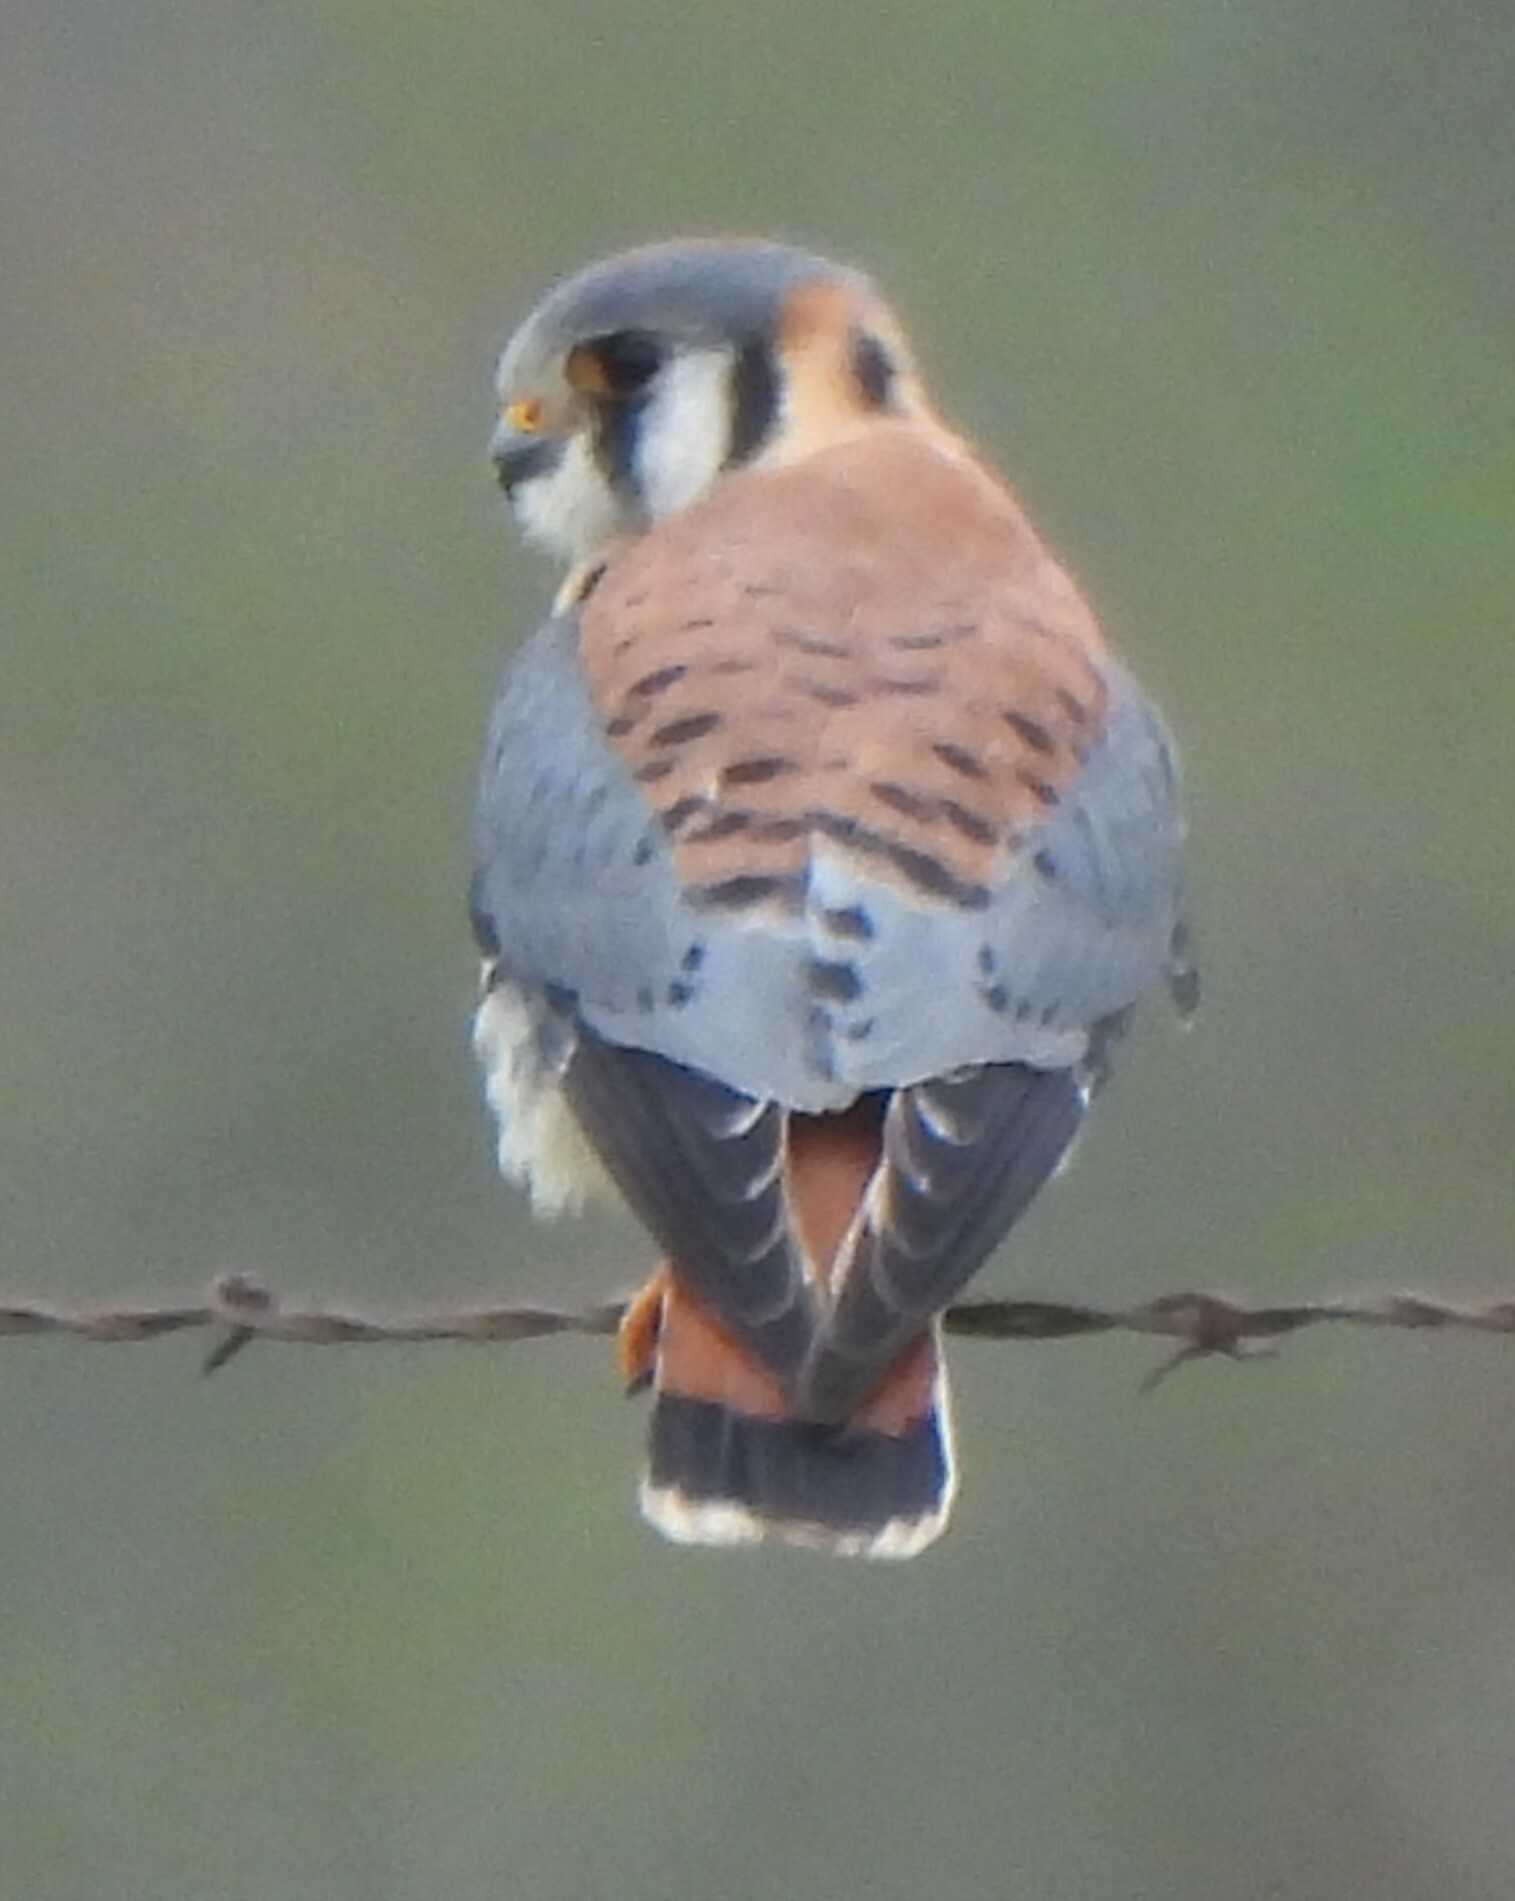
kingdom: Animalia
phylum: Chordata
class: Aves
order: Falconiformes
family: Falconidae
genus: Falco
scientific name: Falco sparverius
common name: American kestrel
